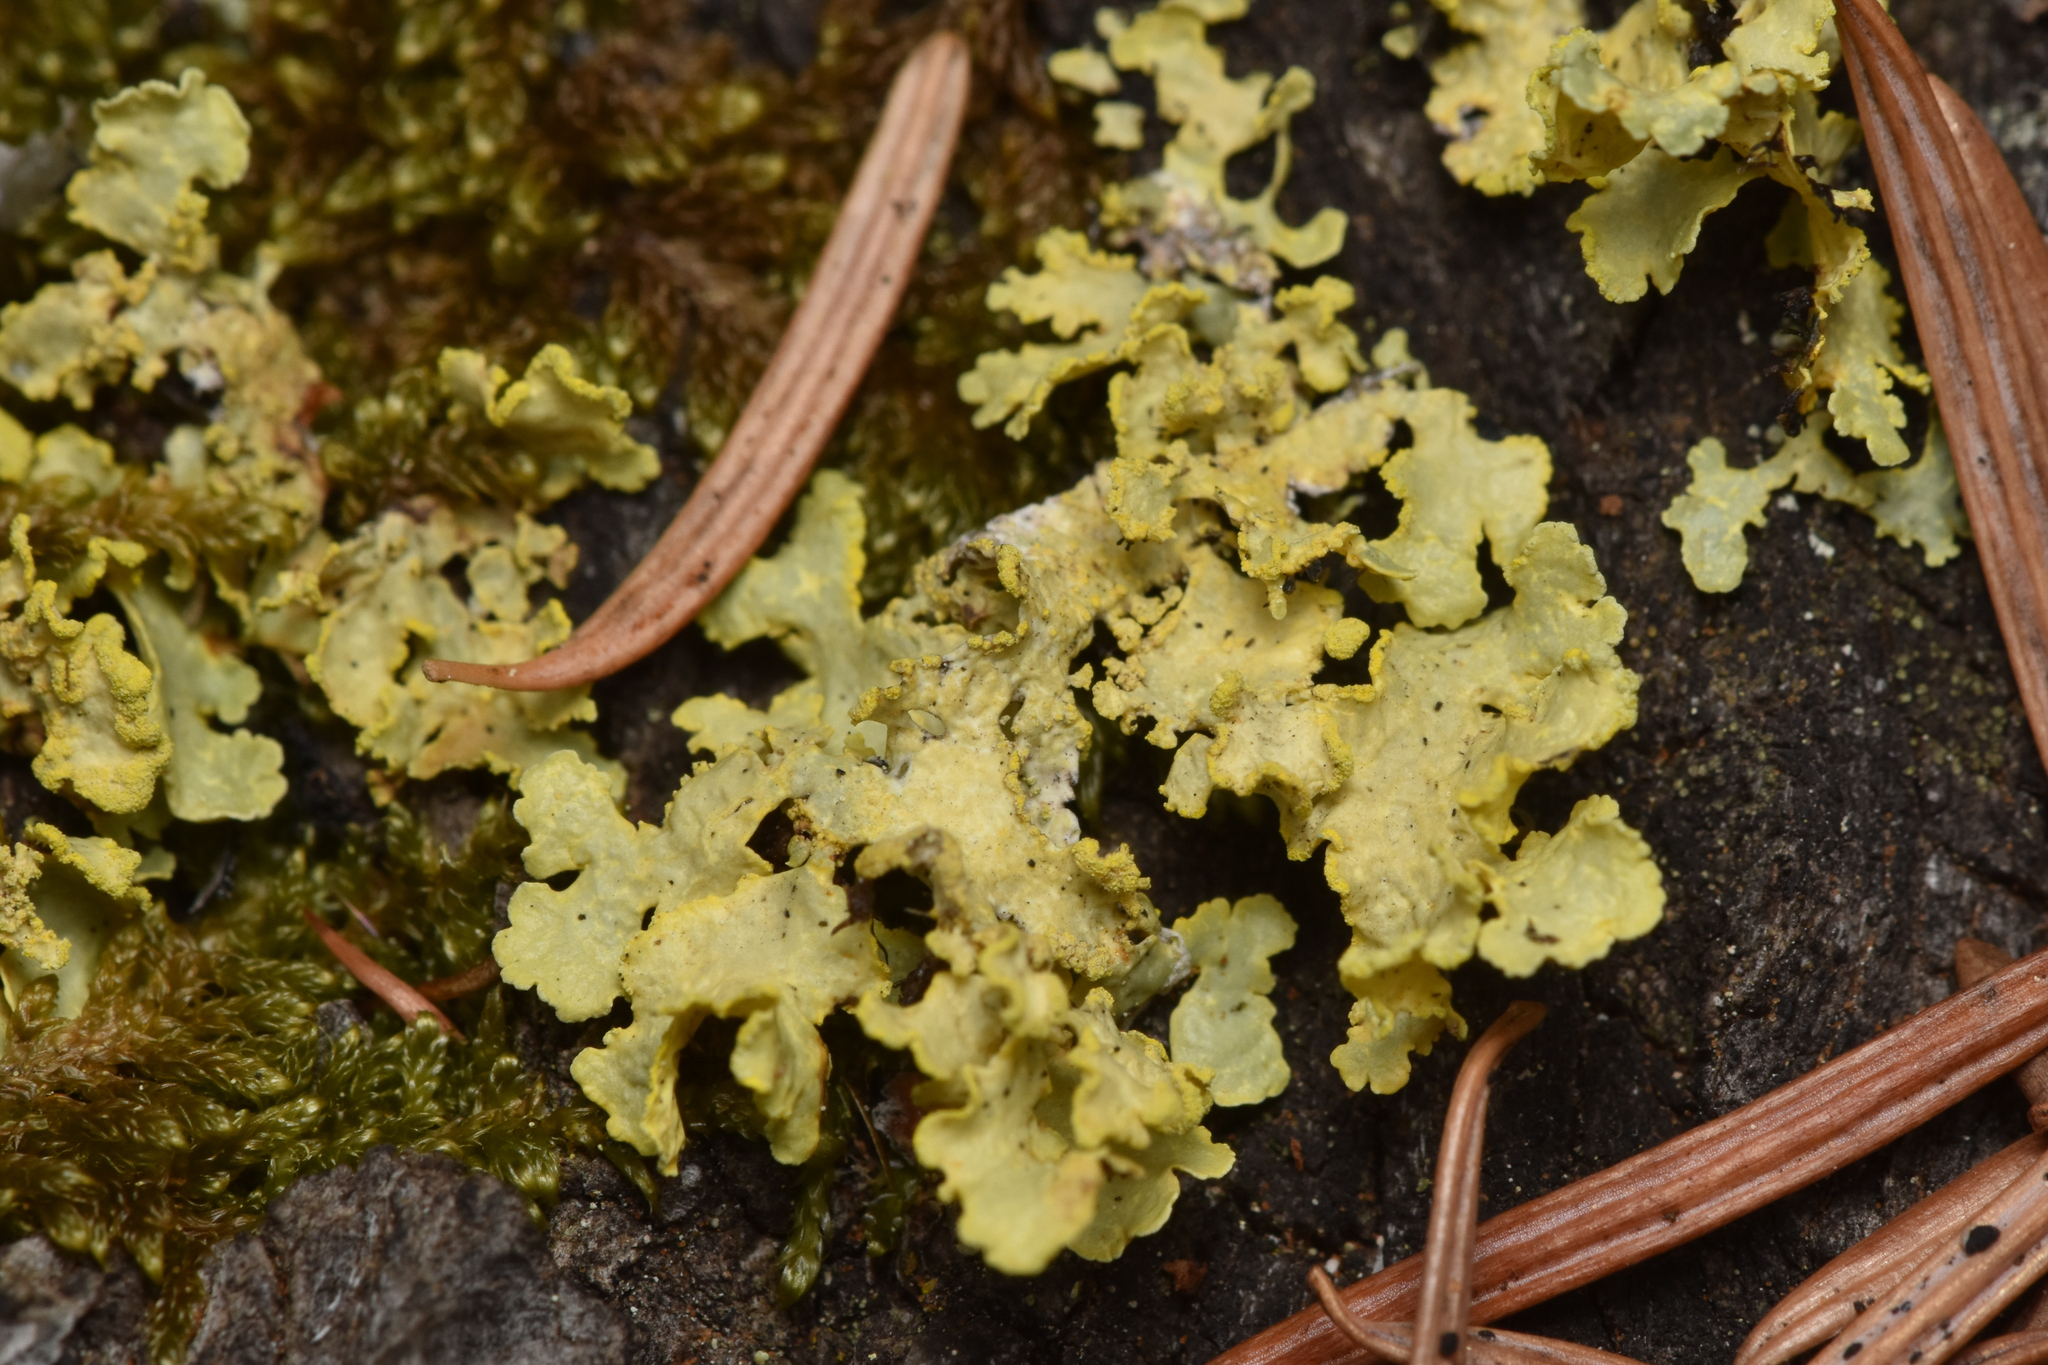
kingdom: Fungi
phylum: Ascomycota
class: Lecanoromycetes
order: Lecanorales
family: Parmeliaceae
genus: Vulpicida
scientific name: Vulpicida pinastri
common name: Powdered sunshine lichen
